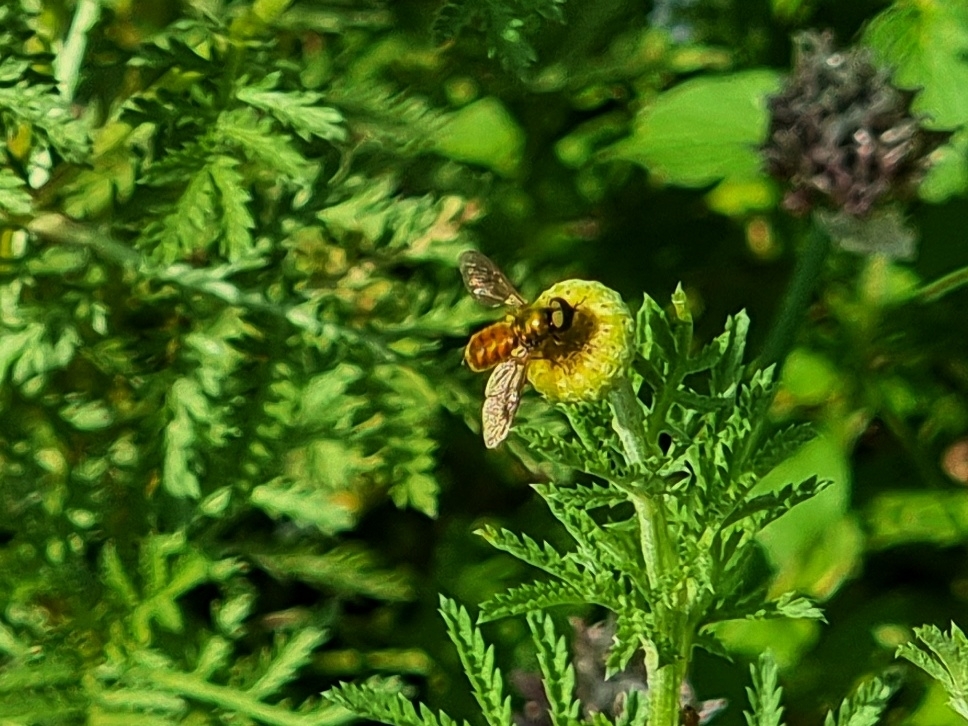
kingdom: Animalia
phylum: Arthropoda
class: Insecta
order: Diptera
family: Stratiomyidae
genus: Chloromyia
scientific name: Chloromyia formosa
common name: Soldier fly
